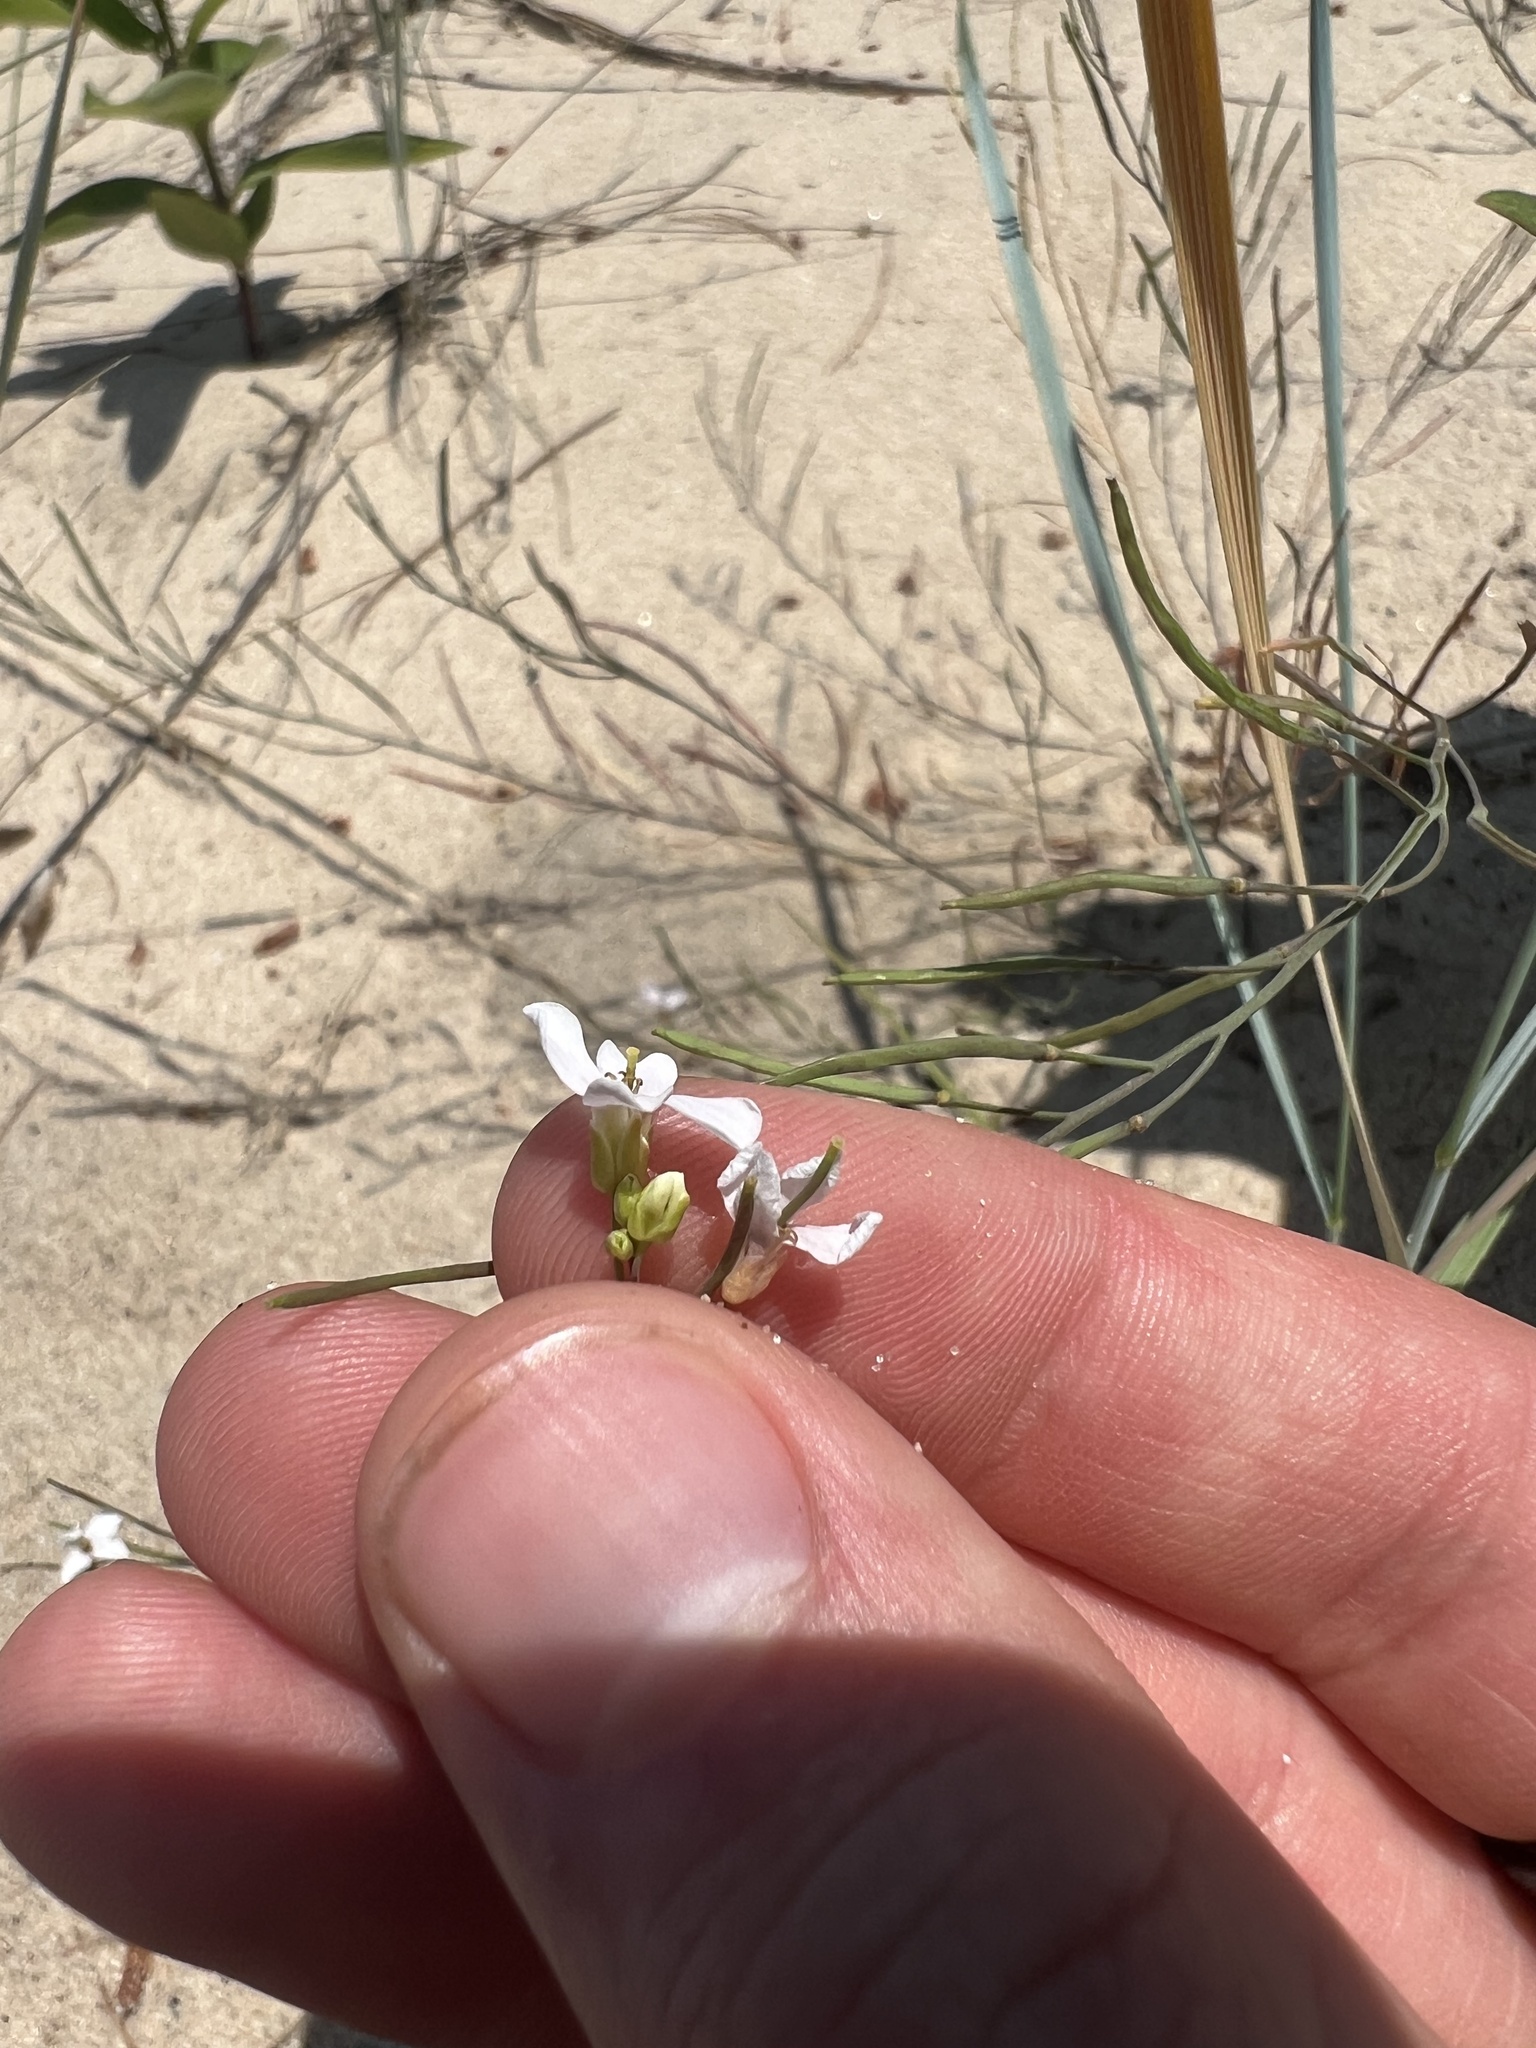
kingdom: Plantae
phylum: Tracheophyta
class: Magnoliopsida
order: Brassicales
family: Brassicaceae
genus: Arabidopsis
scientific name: Arabidopsis lyrata
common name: Lyrate rockcress
